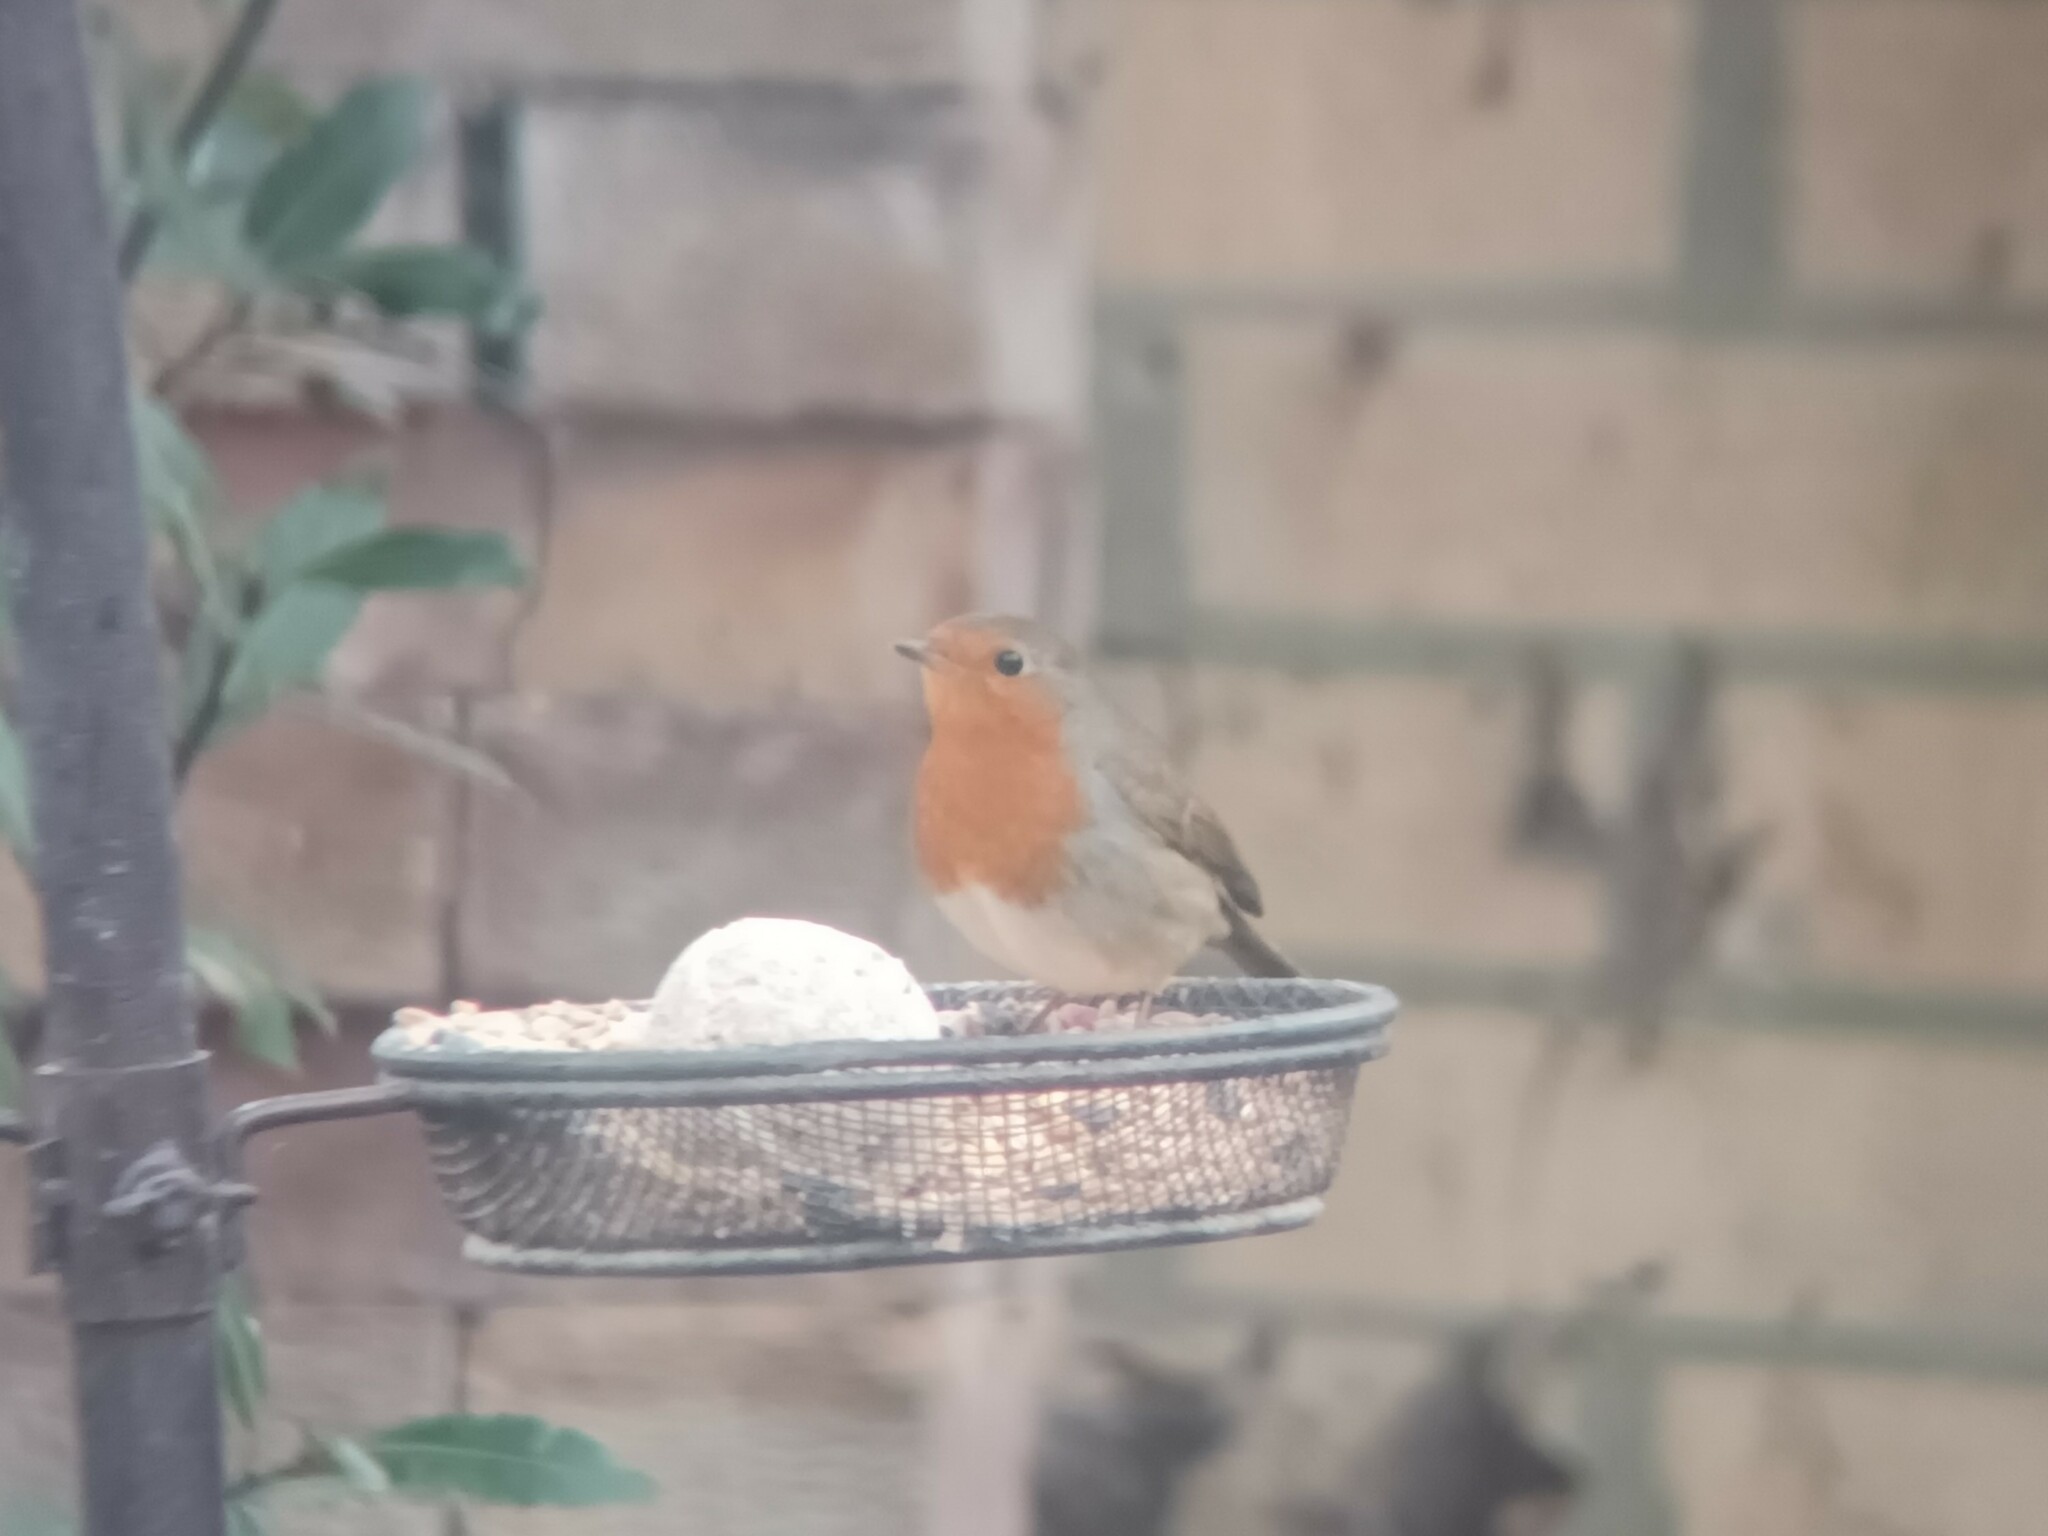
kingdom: Animalia
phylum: Chordata
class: Aves
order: Passeriformes
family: Muscicapidae
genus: Erithacus
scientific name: Erithacus rubecula
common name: European robin
